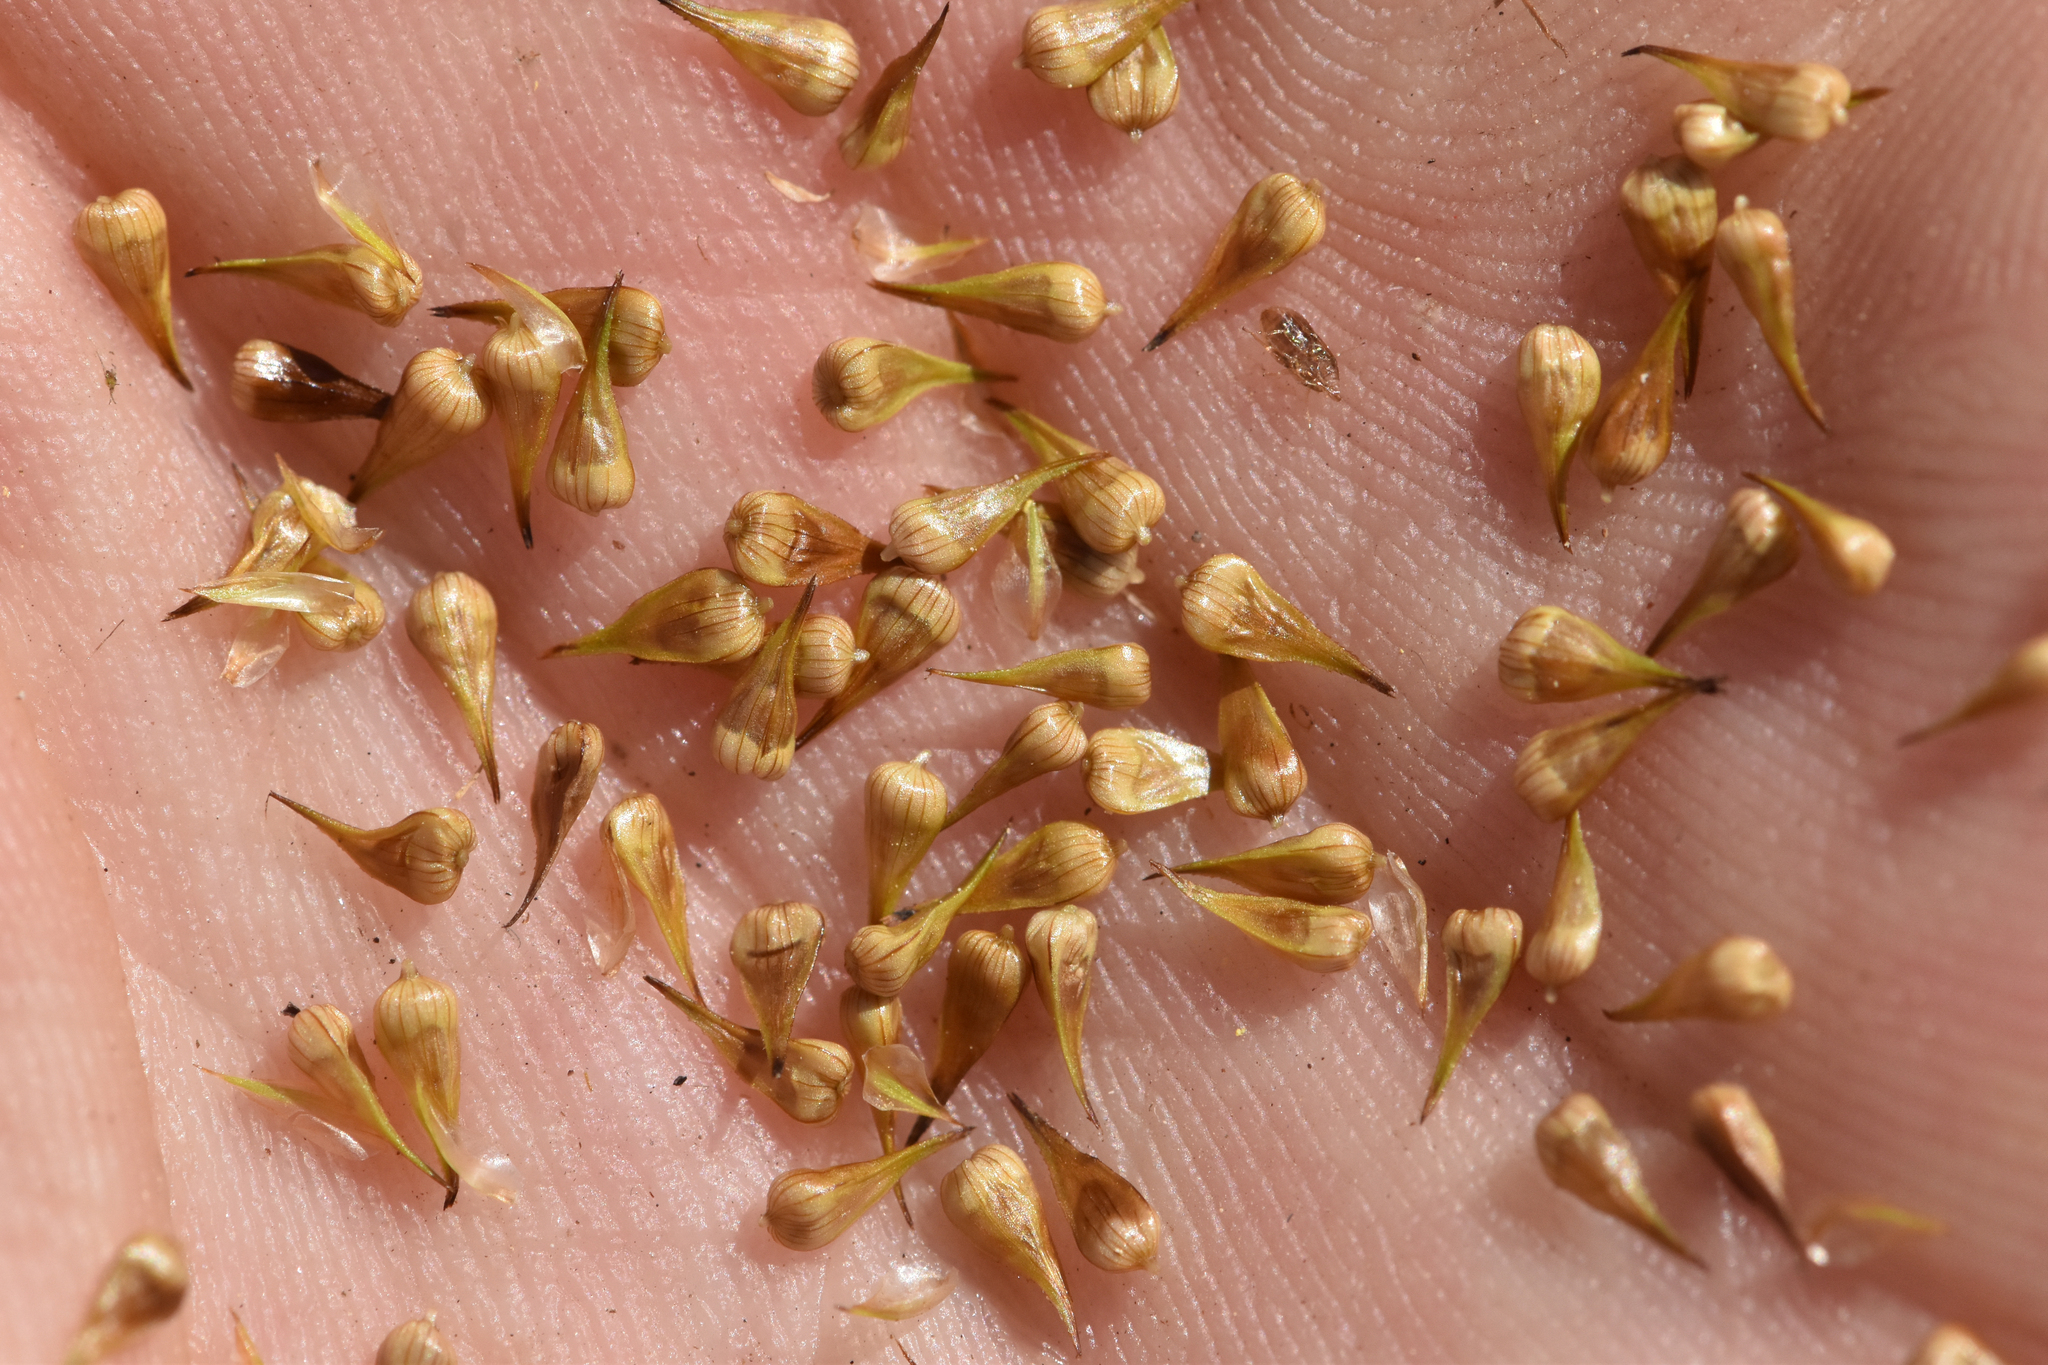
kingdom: Plantae
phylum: Tracheophyta
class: Liliopsida
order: Poales
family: Cyperaceae
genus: Carex
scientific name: Carex stipata
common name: Awl-fruited sedge
